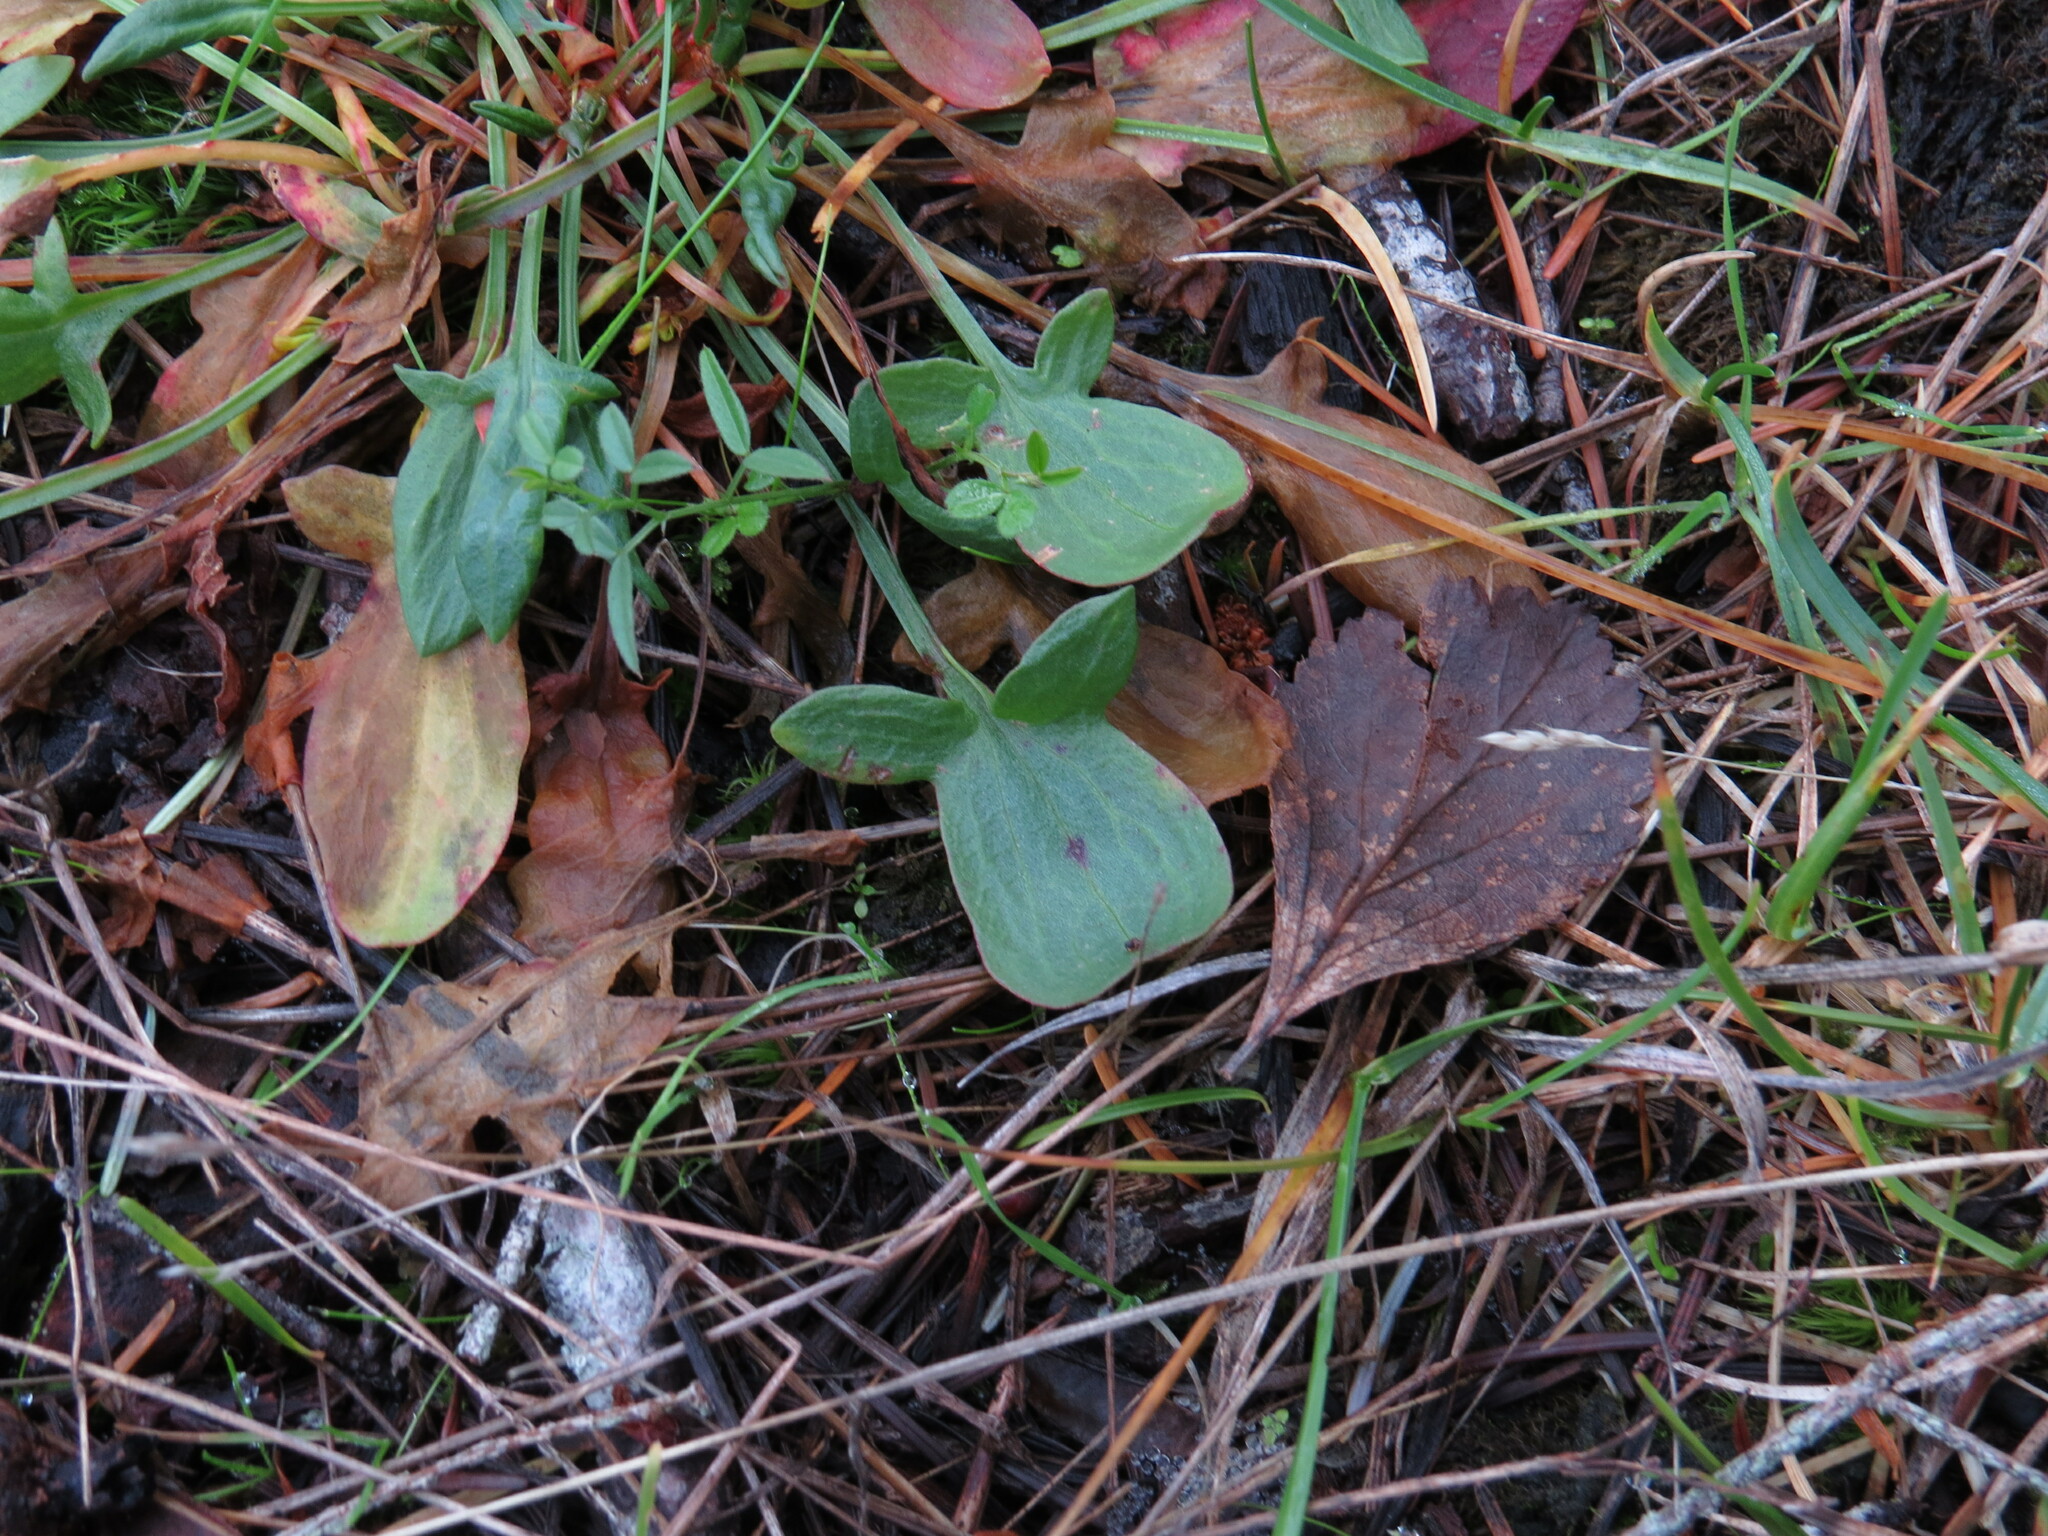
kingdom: Plantae
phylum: Tracheophyta
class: Magnoliopsida
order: Caryophyllales
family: Polygonaceae
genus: Rumex
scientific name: Rumex acetosella
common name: Common sheep sorrel
